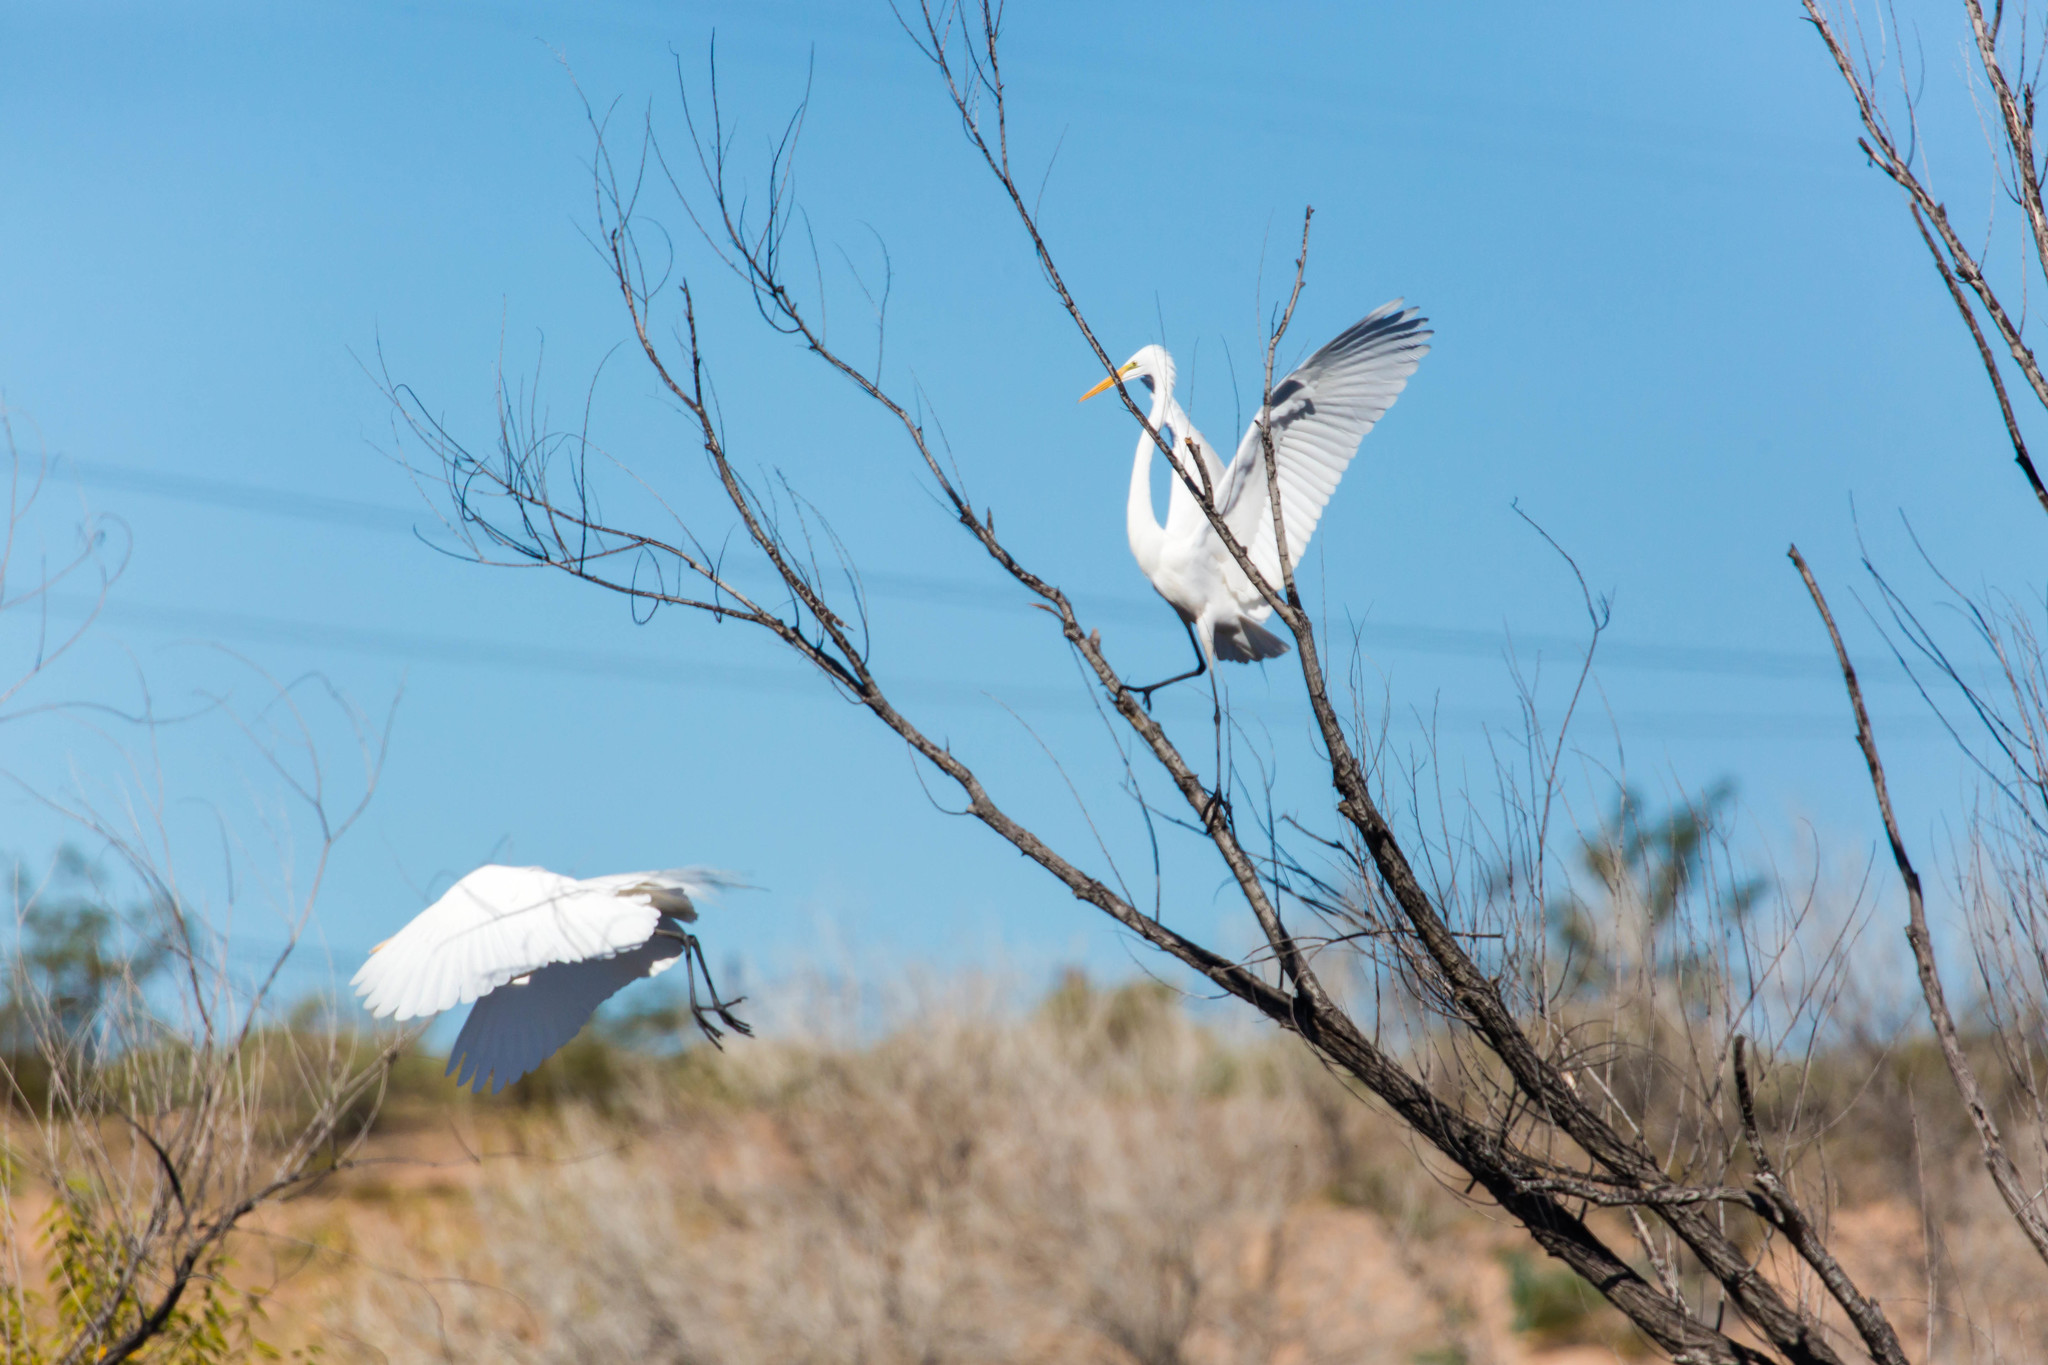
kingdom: Animalia
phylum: Chordata
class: Aves
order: Pelecaniformes
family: Ardeidae
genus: Ardea
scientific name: Ardea alba
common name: Great egret
